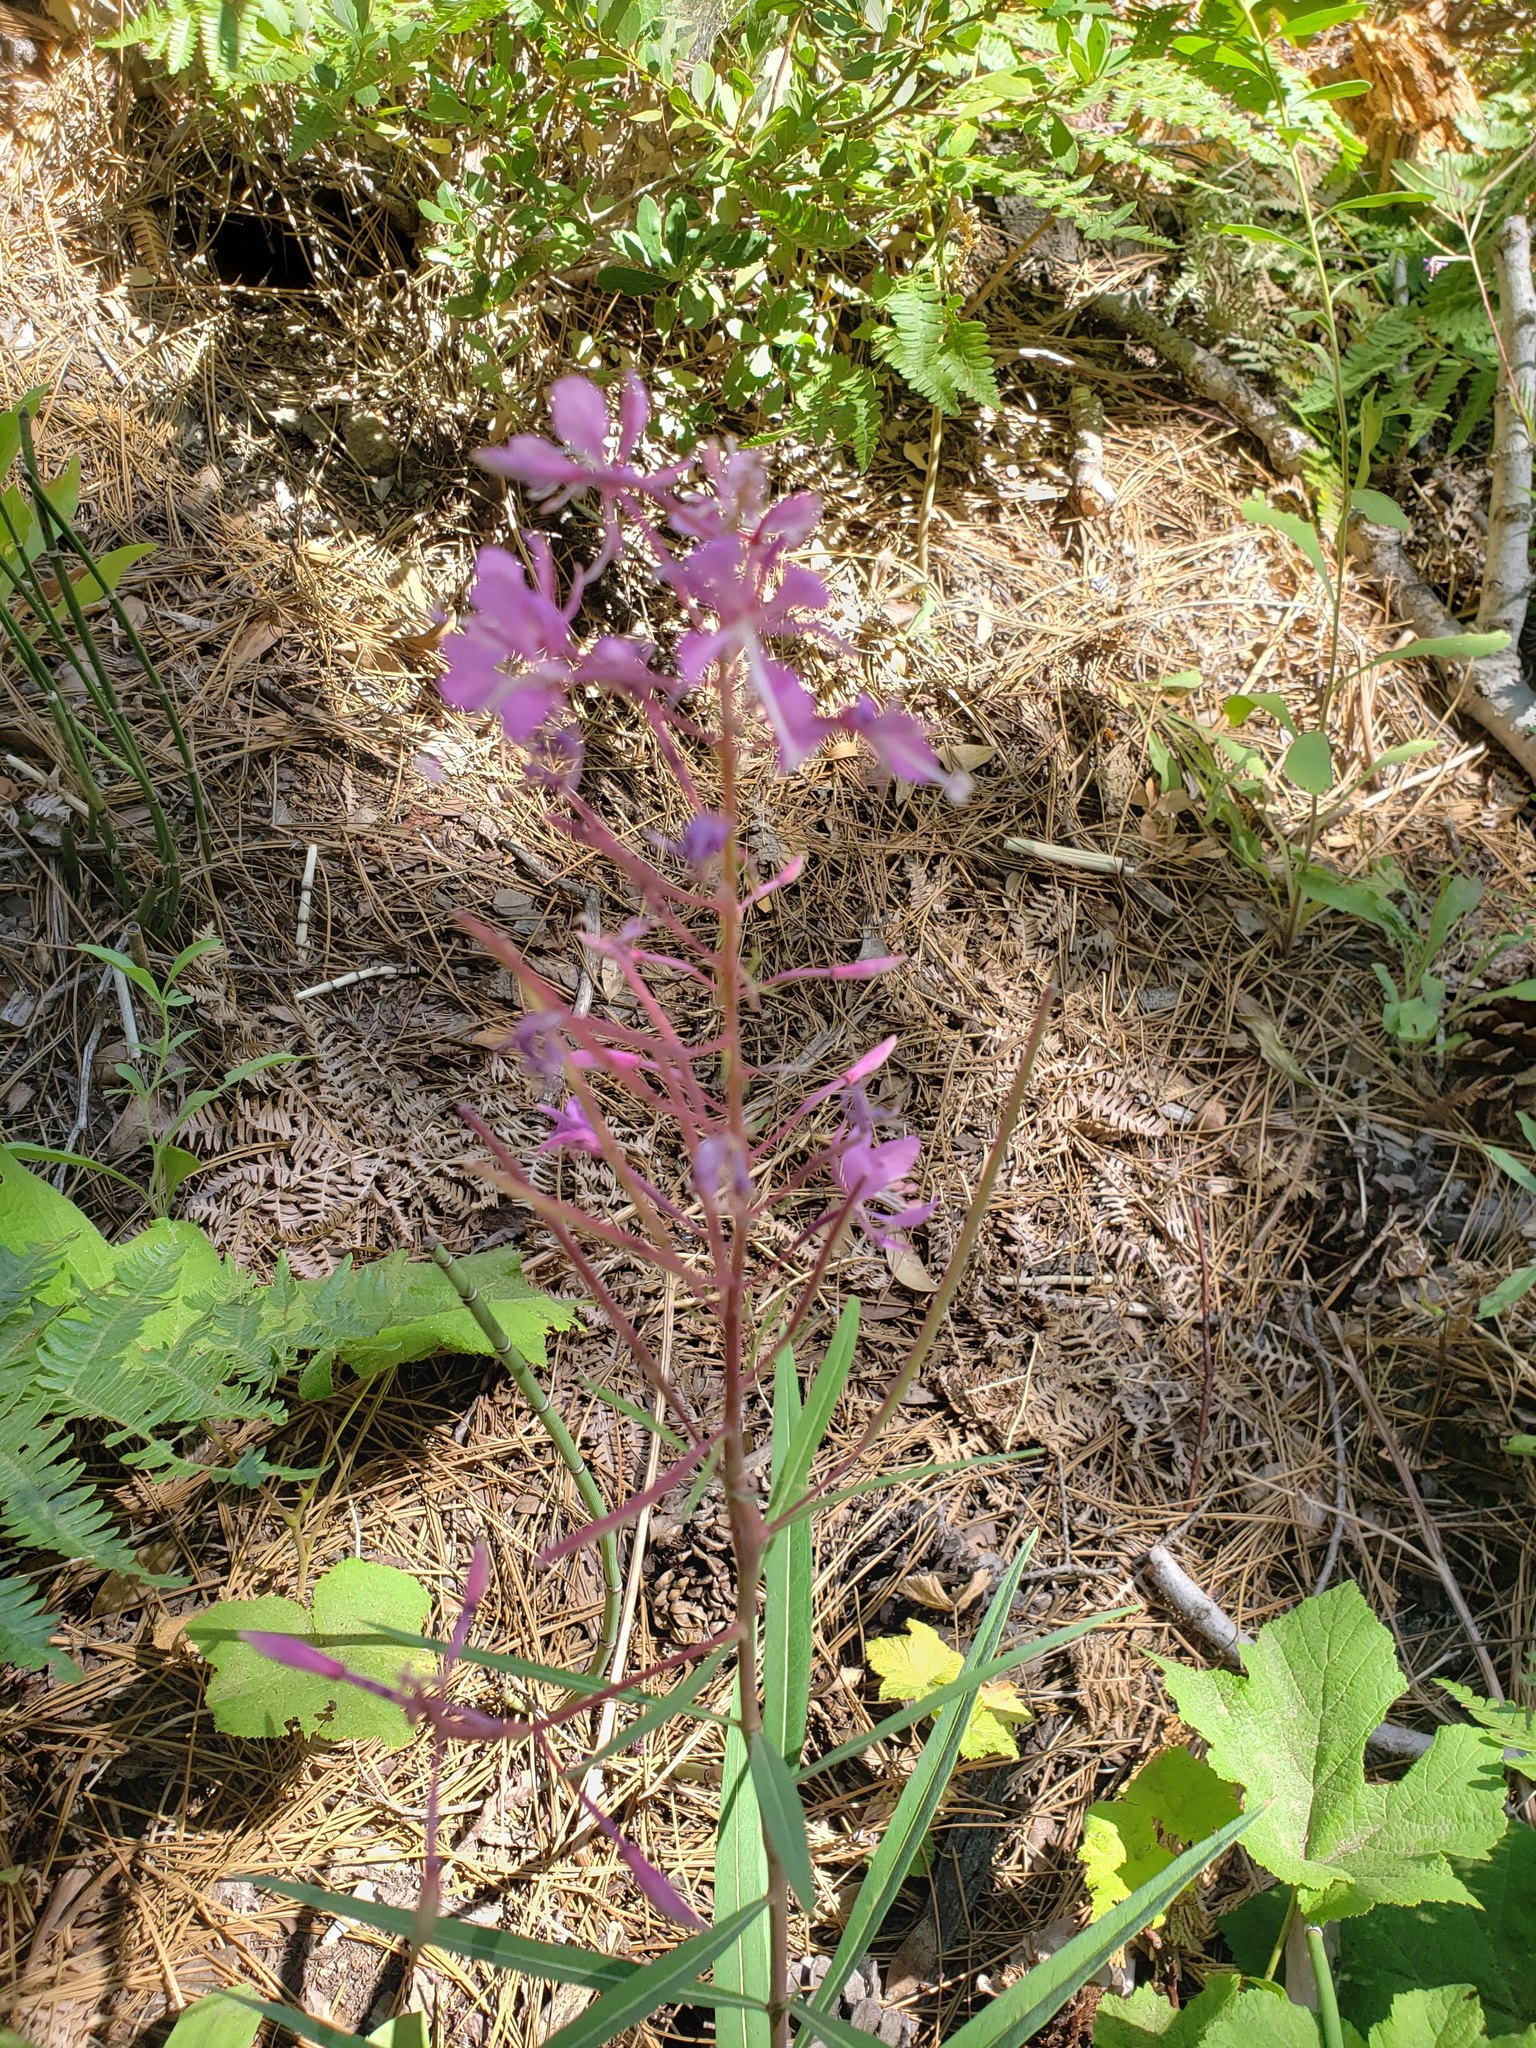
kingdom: Plantae
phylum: Tracheophyta
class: Magnoliopsida
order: Myrtales
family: Onagraceae
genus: Chamaenerion
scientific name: Chamaenerion angustifolium
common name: Fireweed
